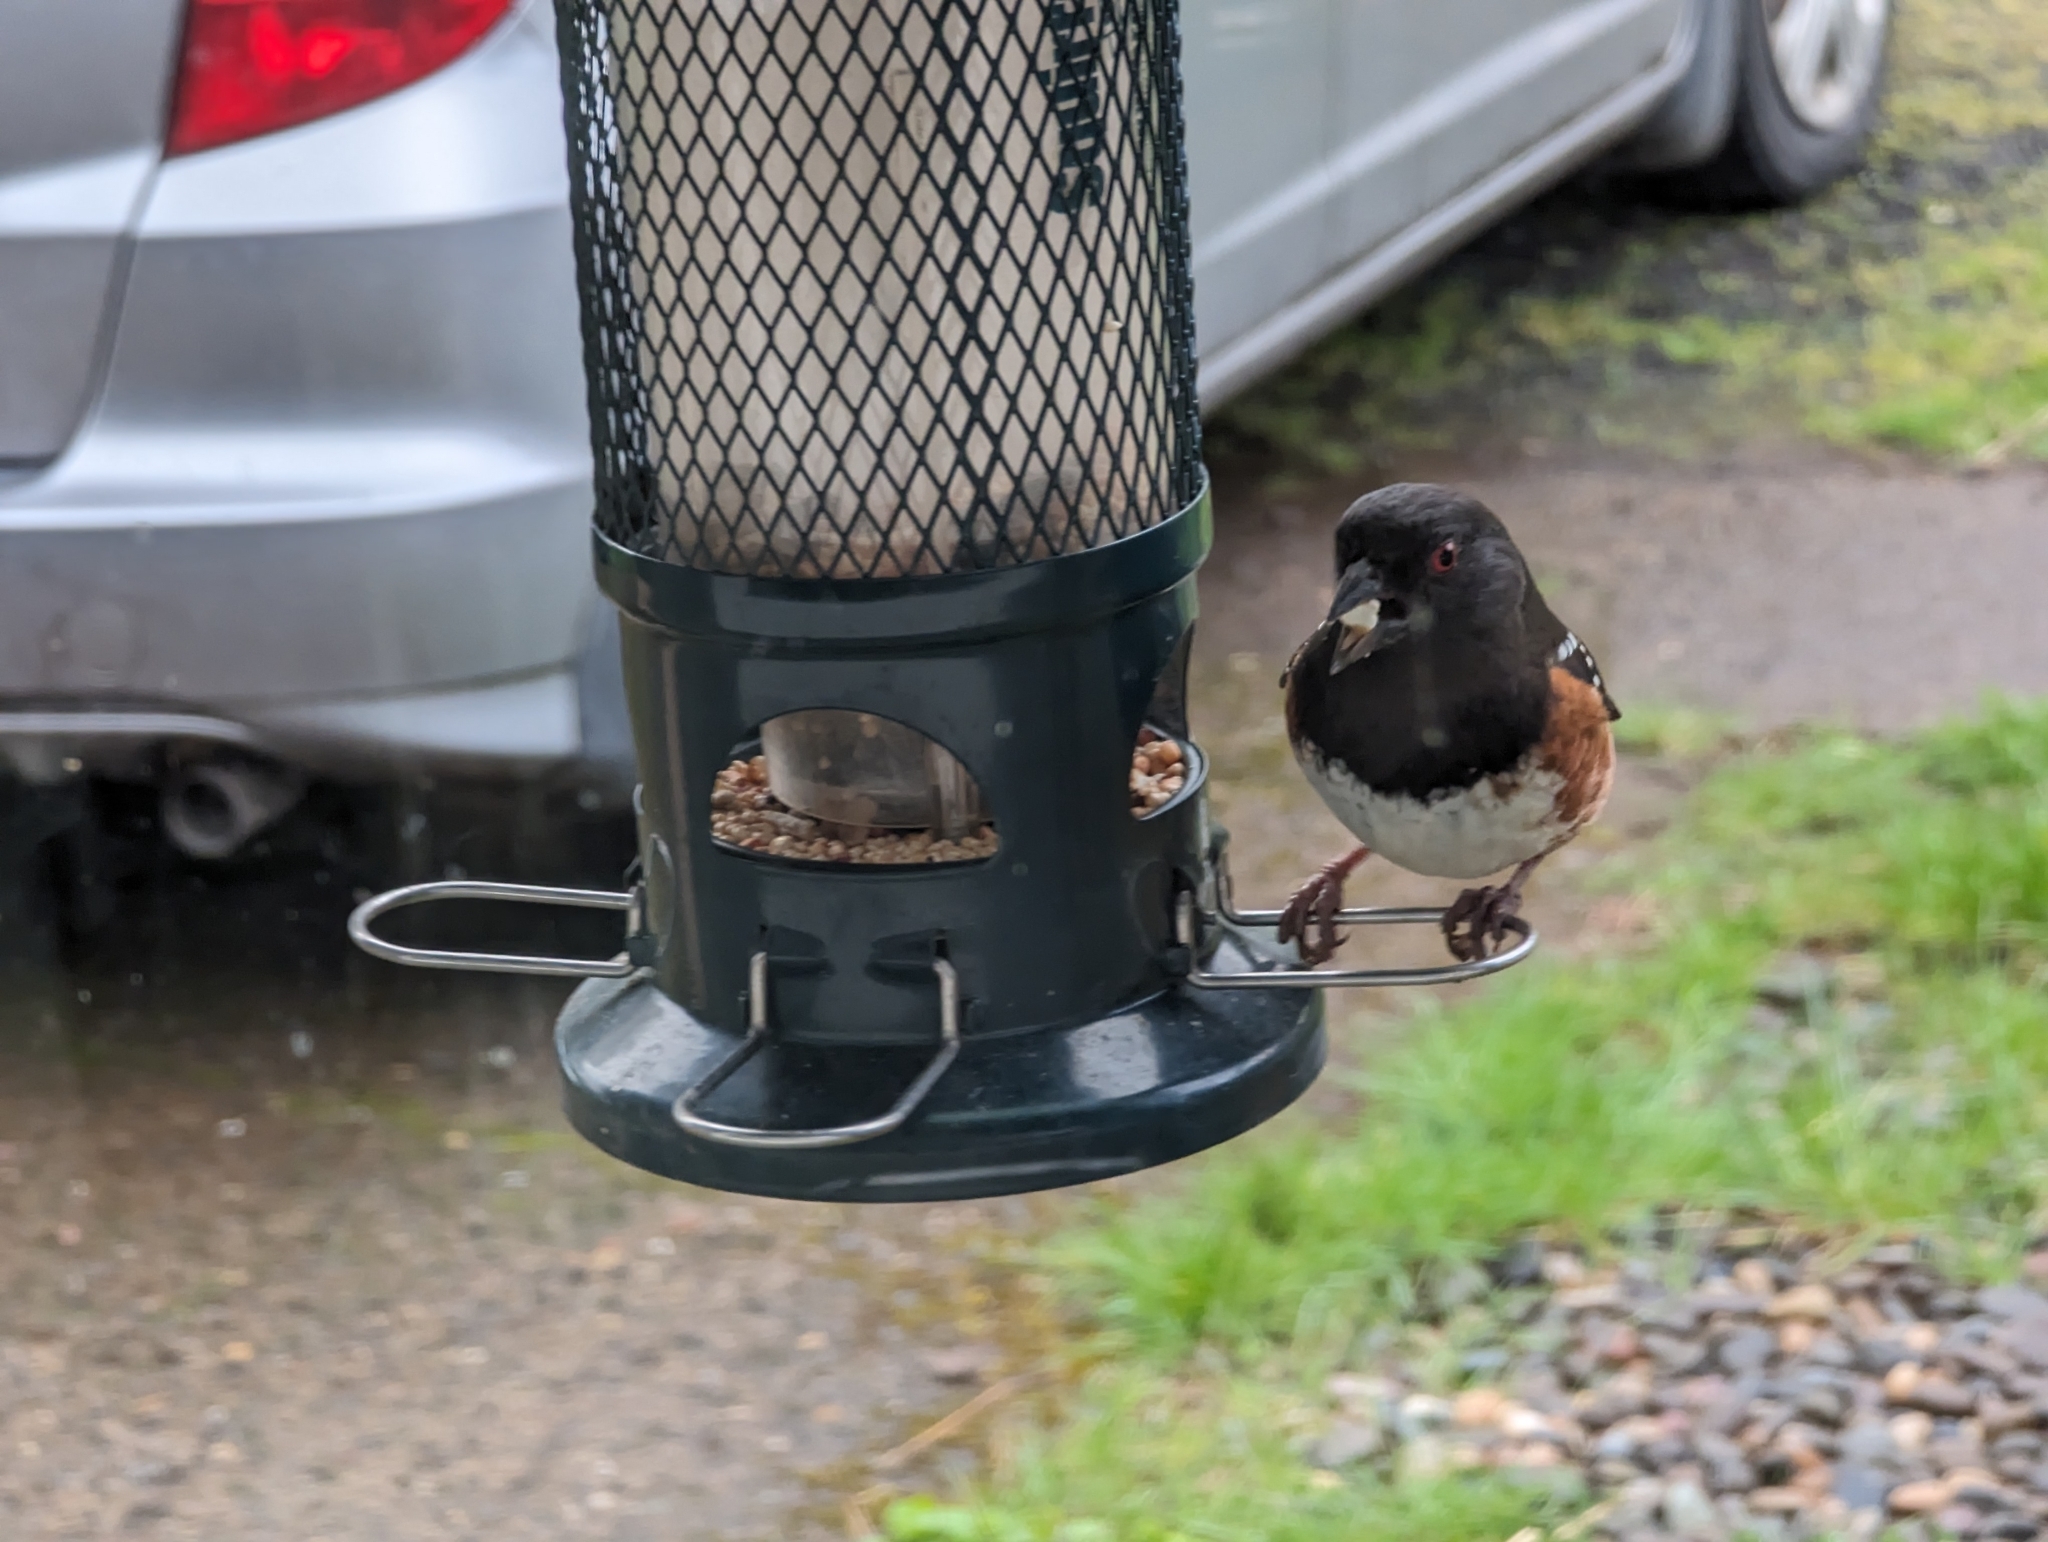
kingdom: Animalia
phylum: Chordata
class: Aves
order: Passeriformes
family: Passerellidae
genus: Pipilo
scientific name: Pipilo maculatus
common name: Spotted towhee
